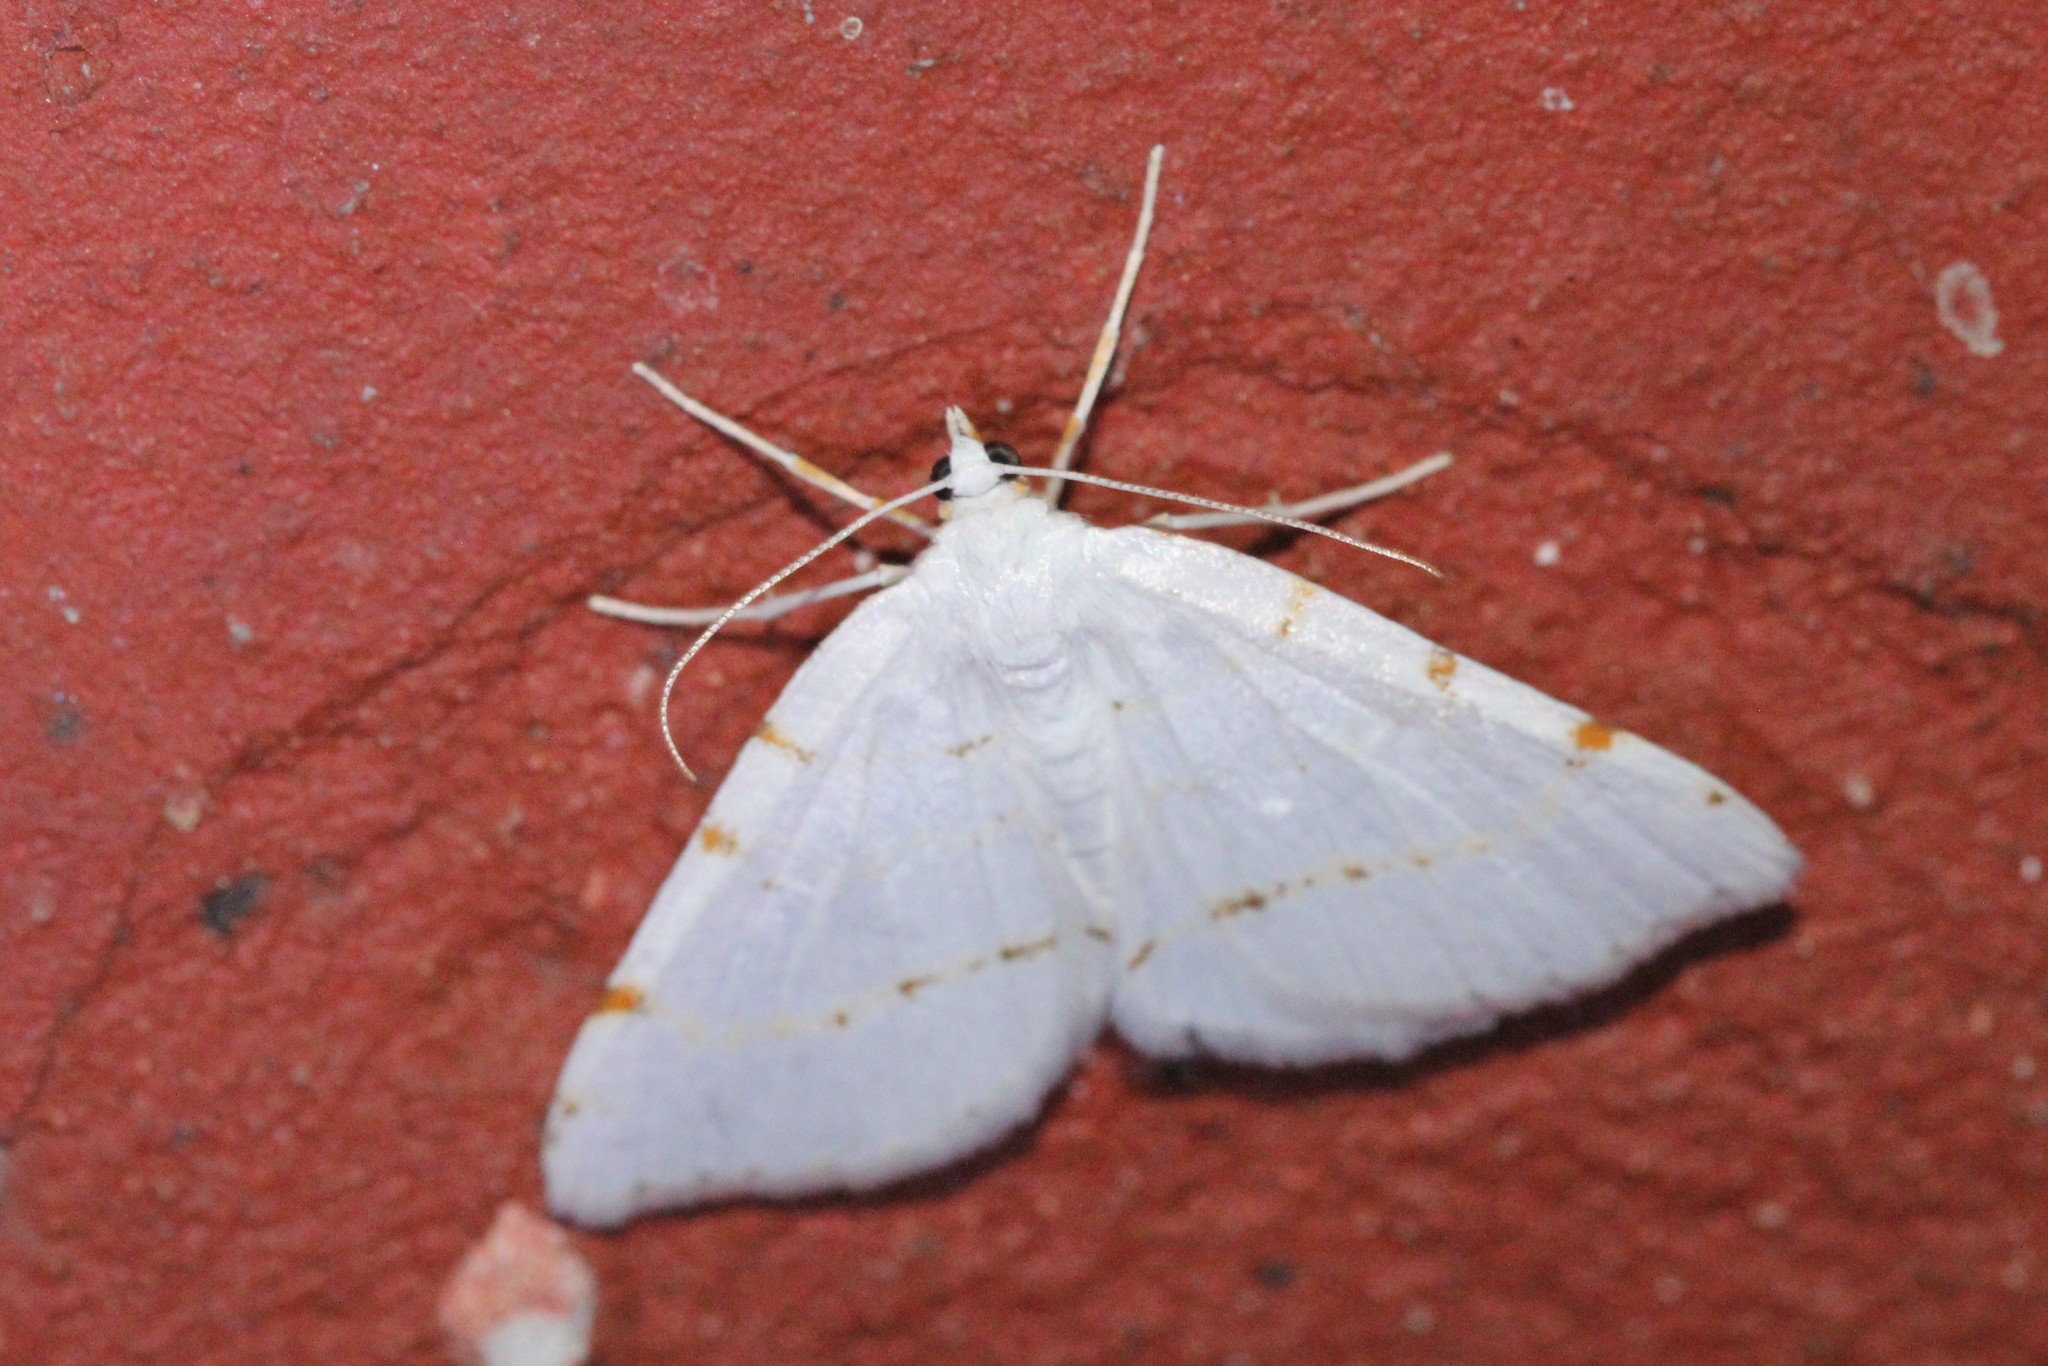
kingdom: Animalia
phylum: Arthropoda
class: Insecta
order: Lepidoptera
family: Geometridae
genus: Macaria
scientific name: Macaria pustularia
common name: Lesser maple spanworm moth
